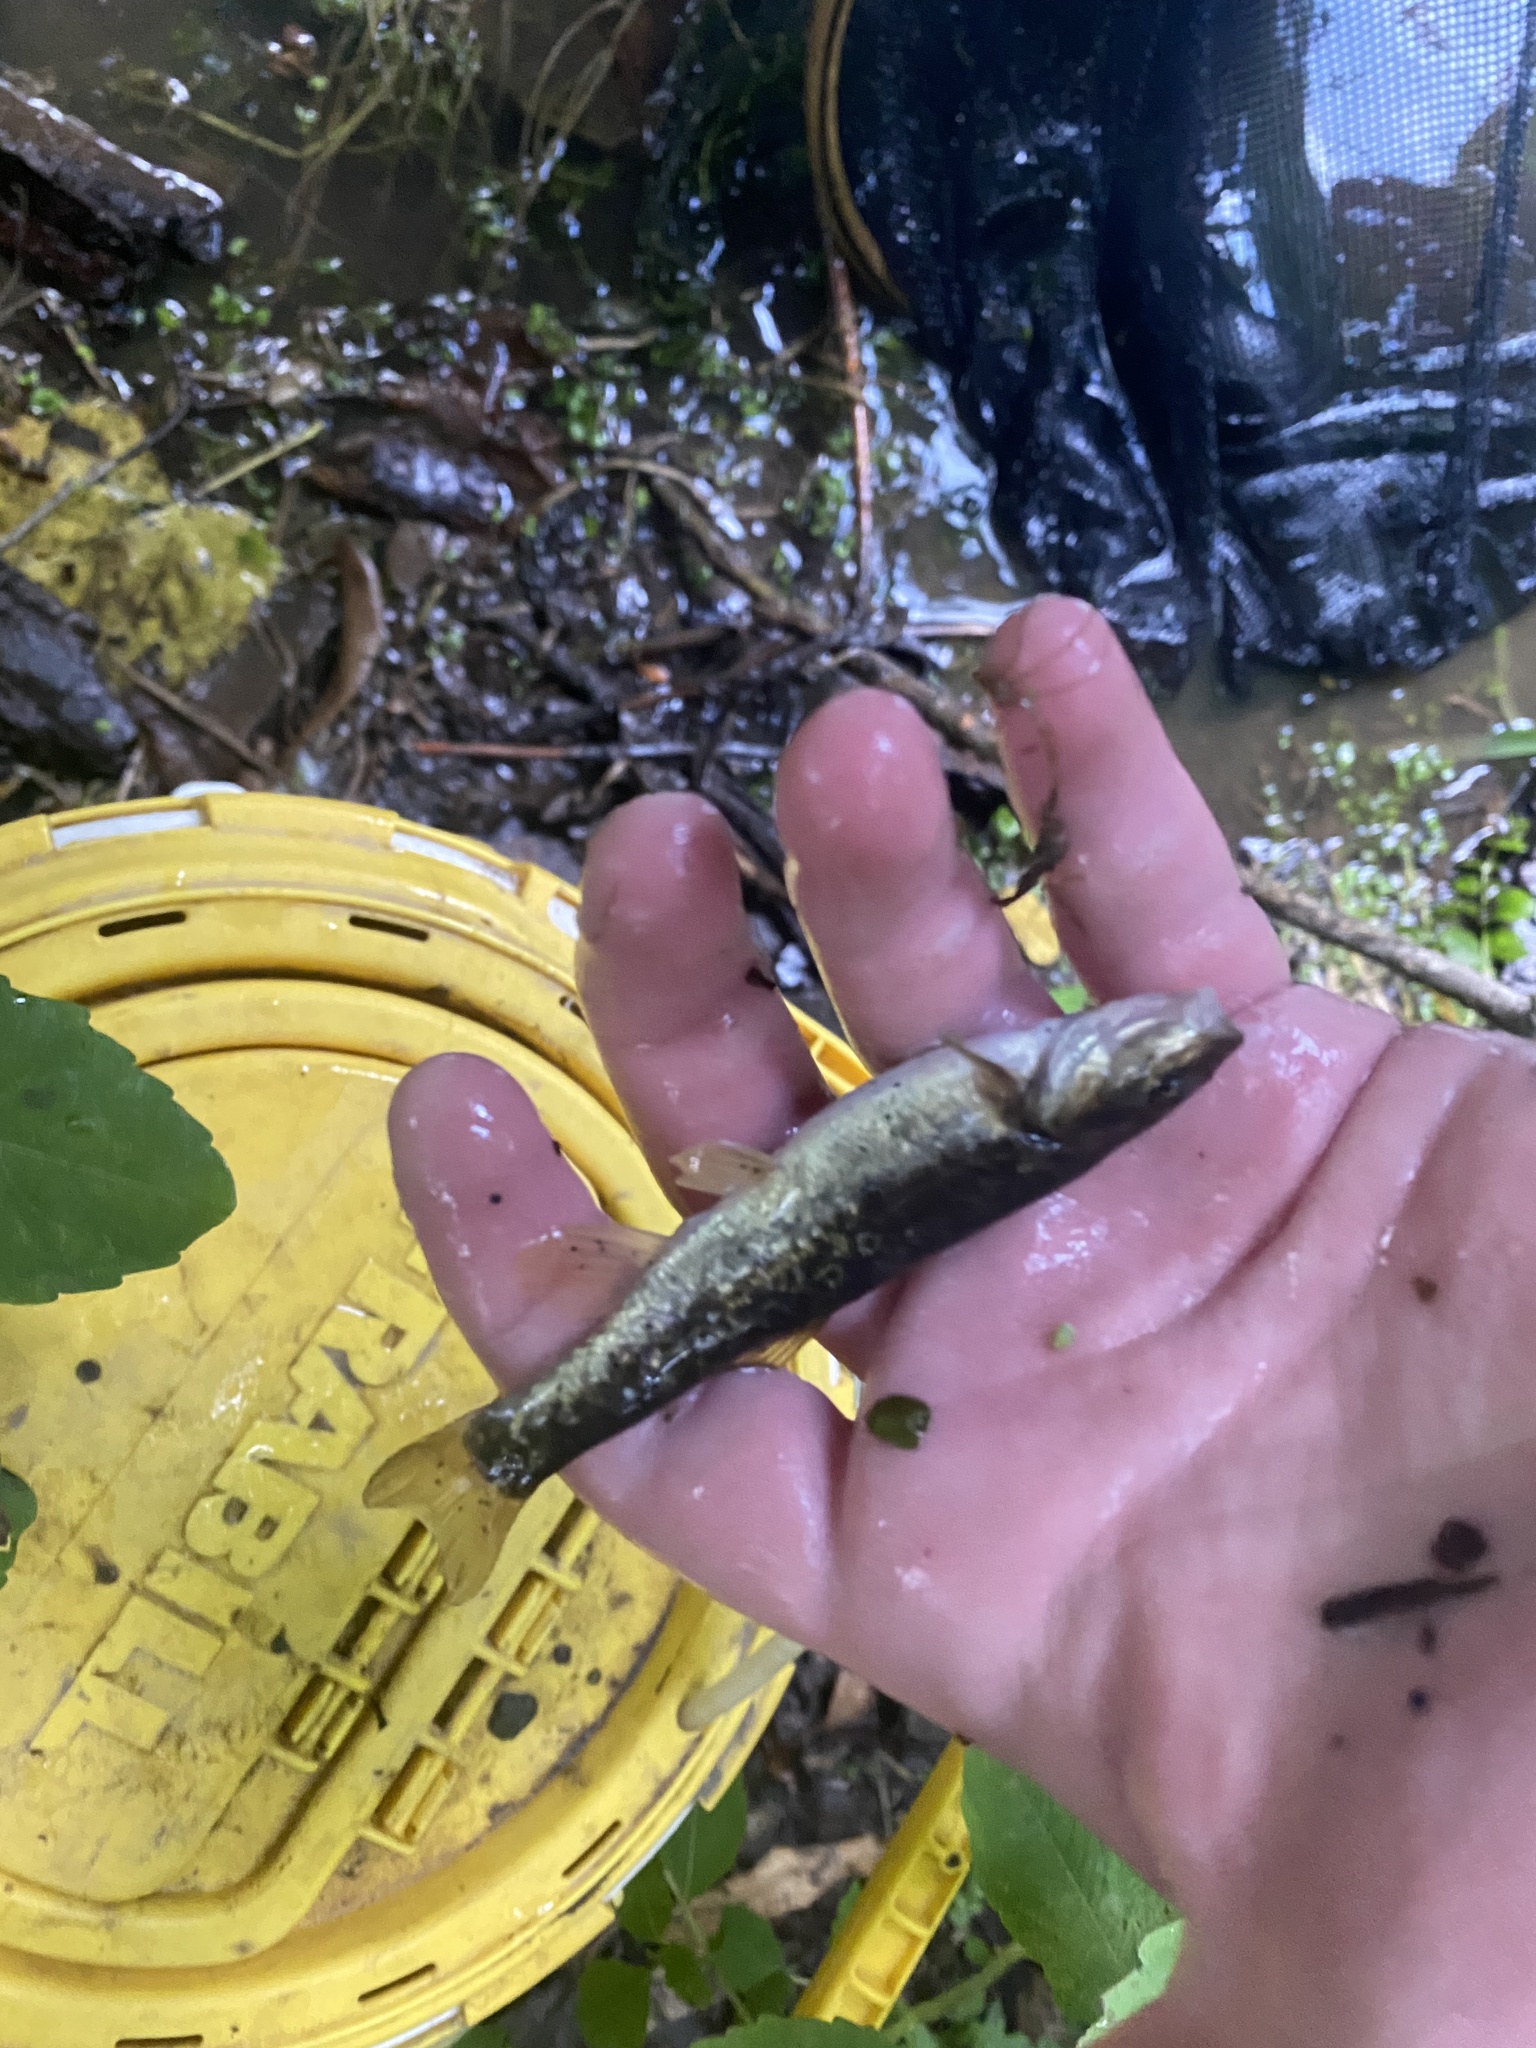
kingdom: Animalia
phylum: Chordata
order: Cypriniformes
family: Cyprinidae
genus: Rhinichthys
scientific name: Rhinichthys obtusus
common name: Western blacknose dace
